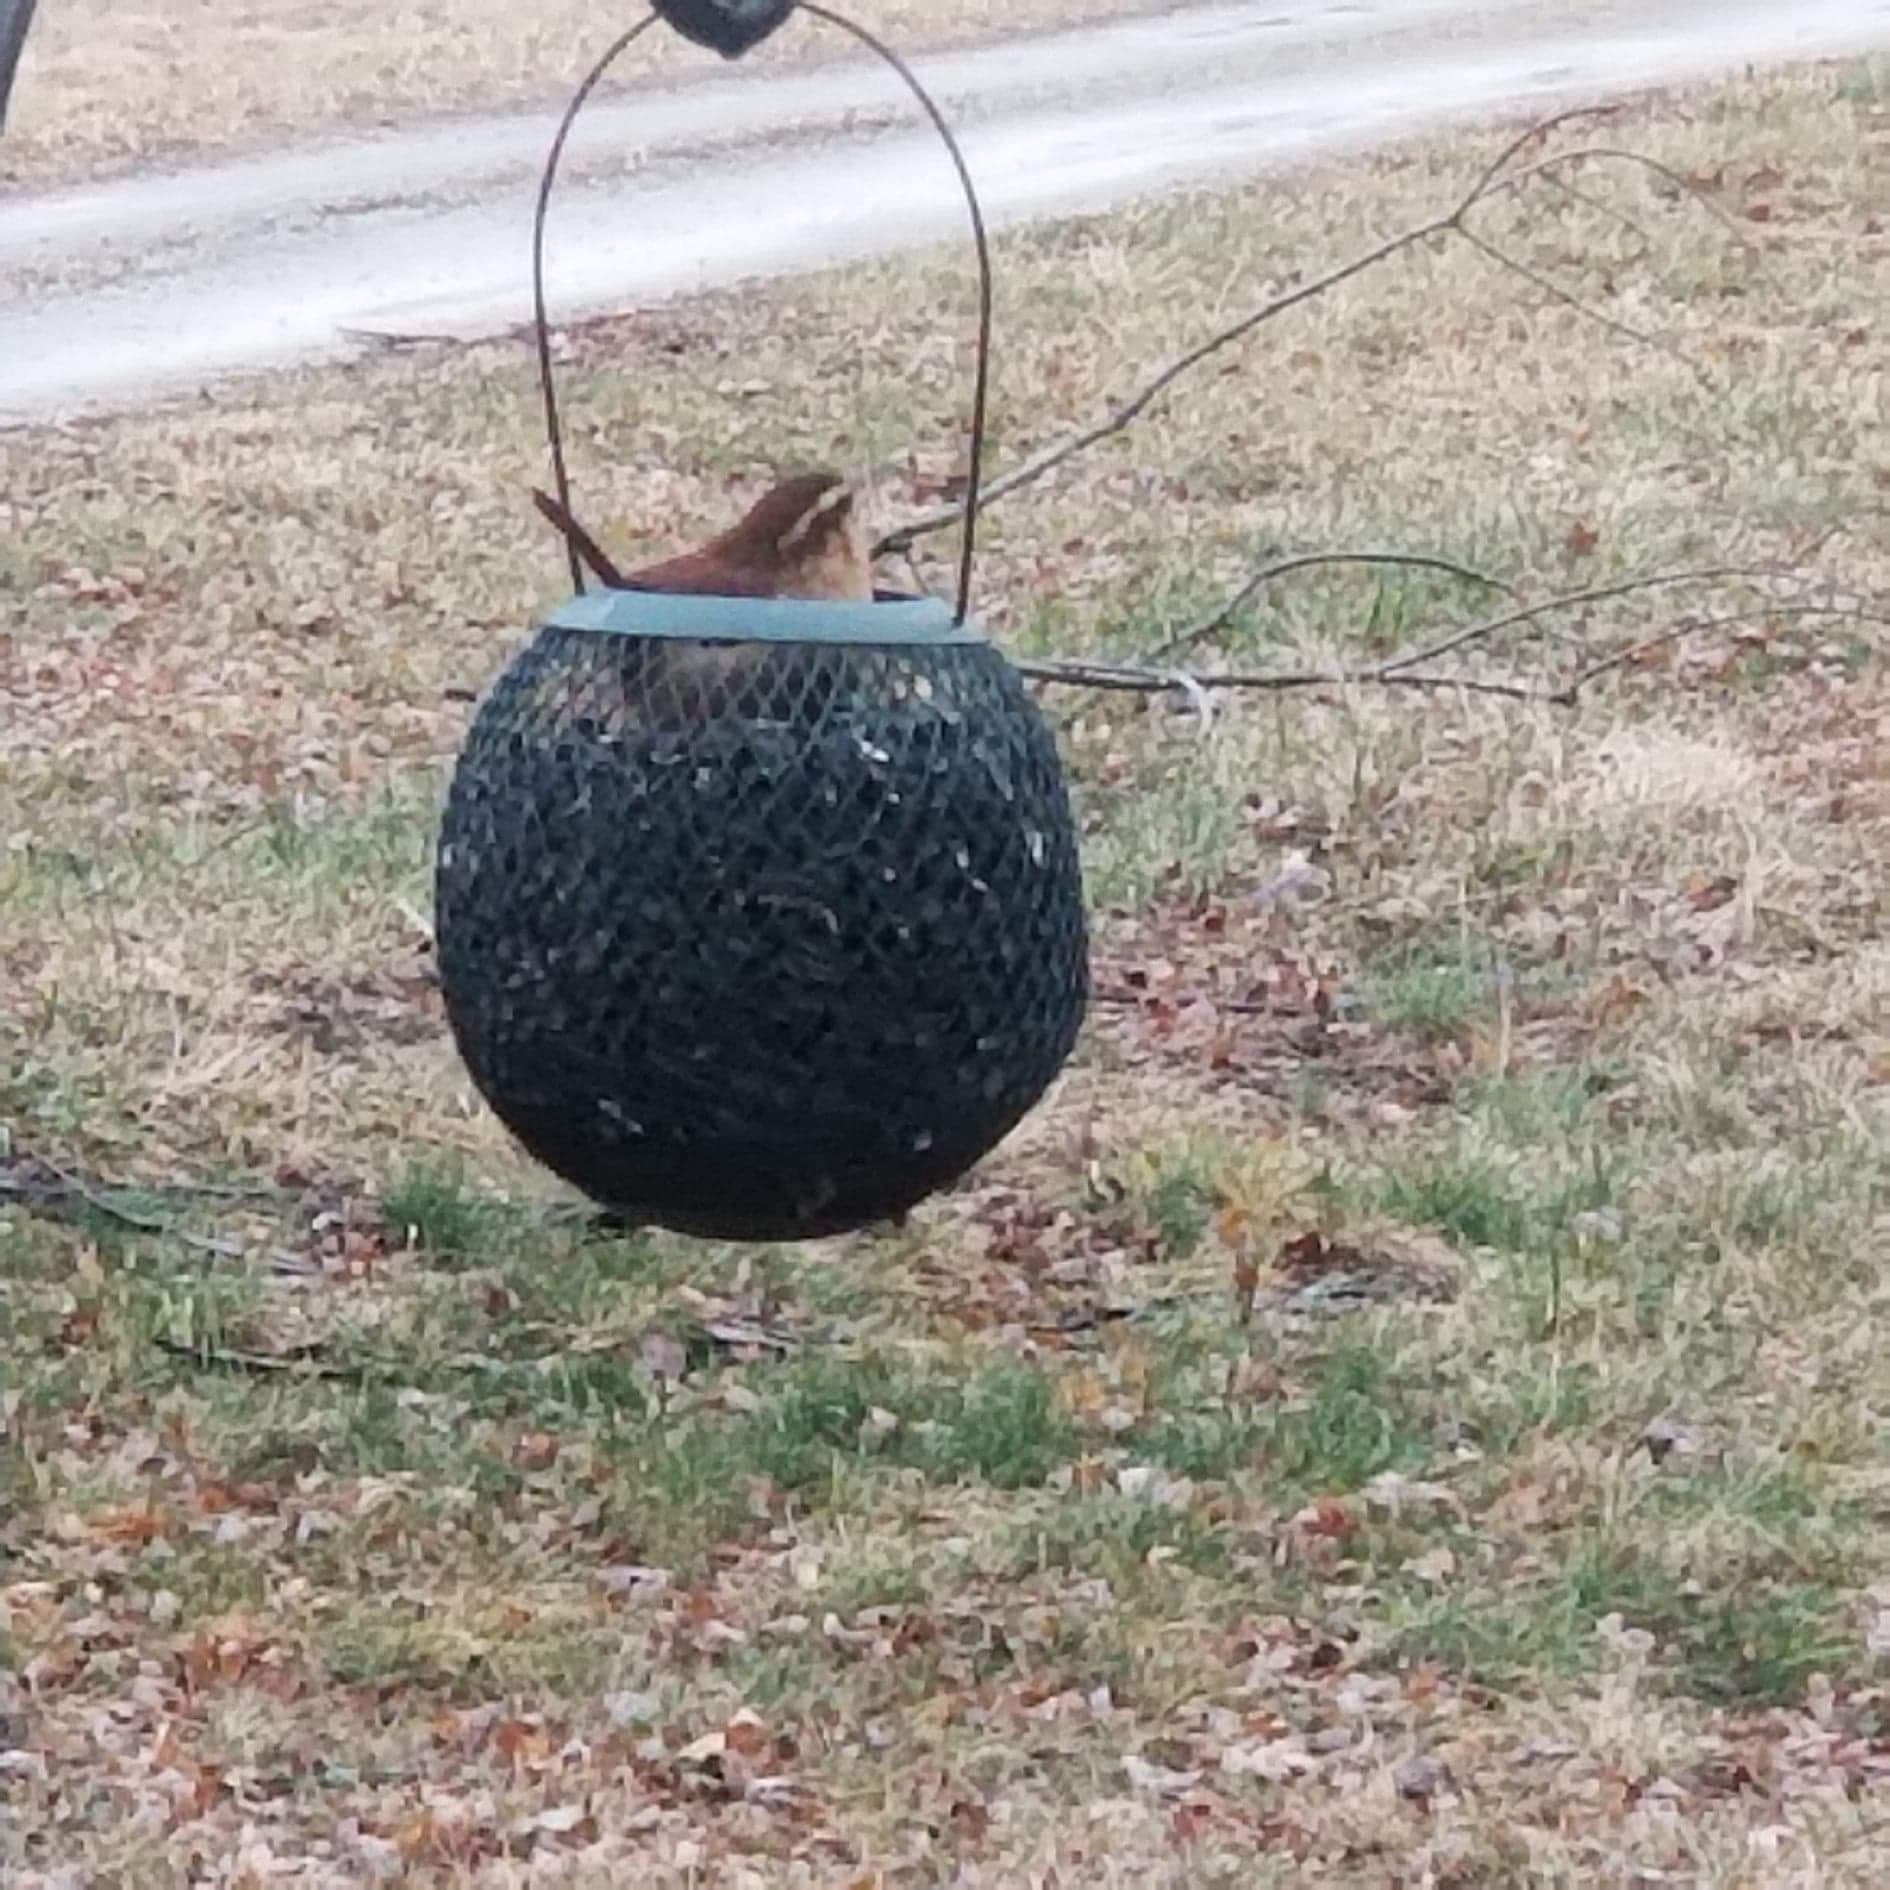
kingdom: Animalia
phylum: Chordata
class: Aves
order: Passeriformes
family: Troglodytidae
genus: Thryothorus
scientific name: Thryothorus ludovicianus
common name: Carolina wren
